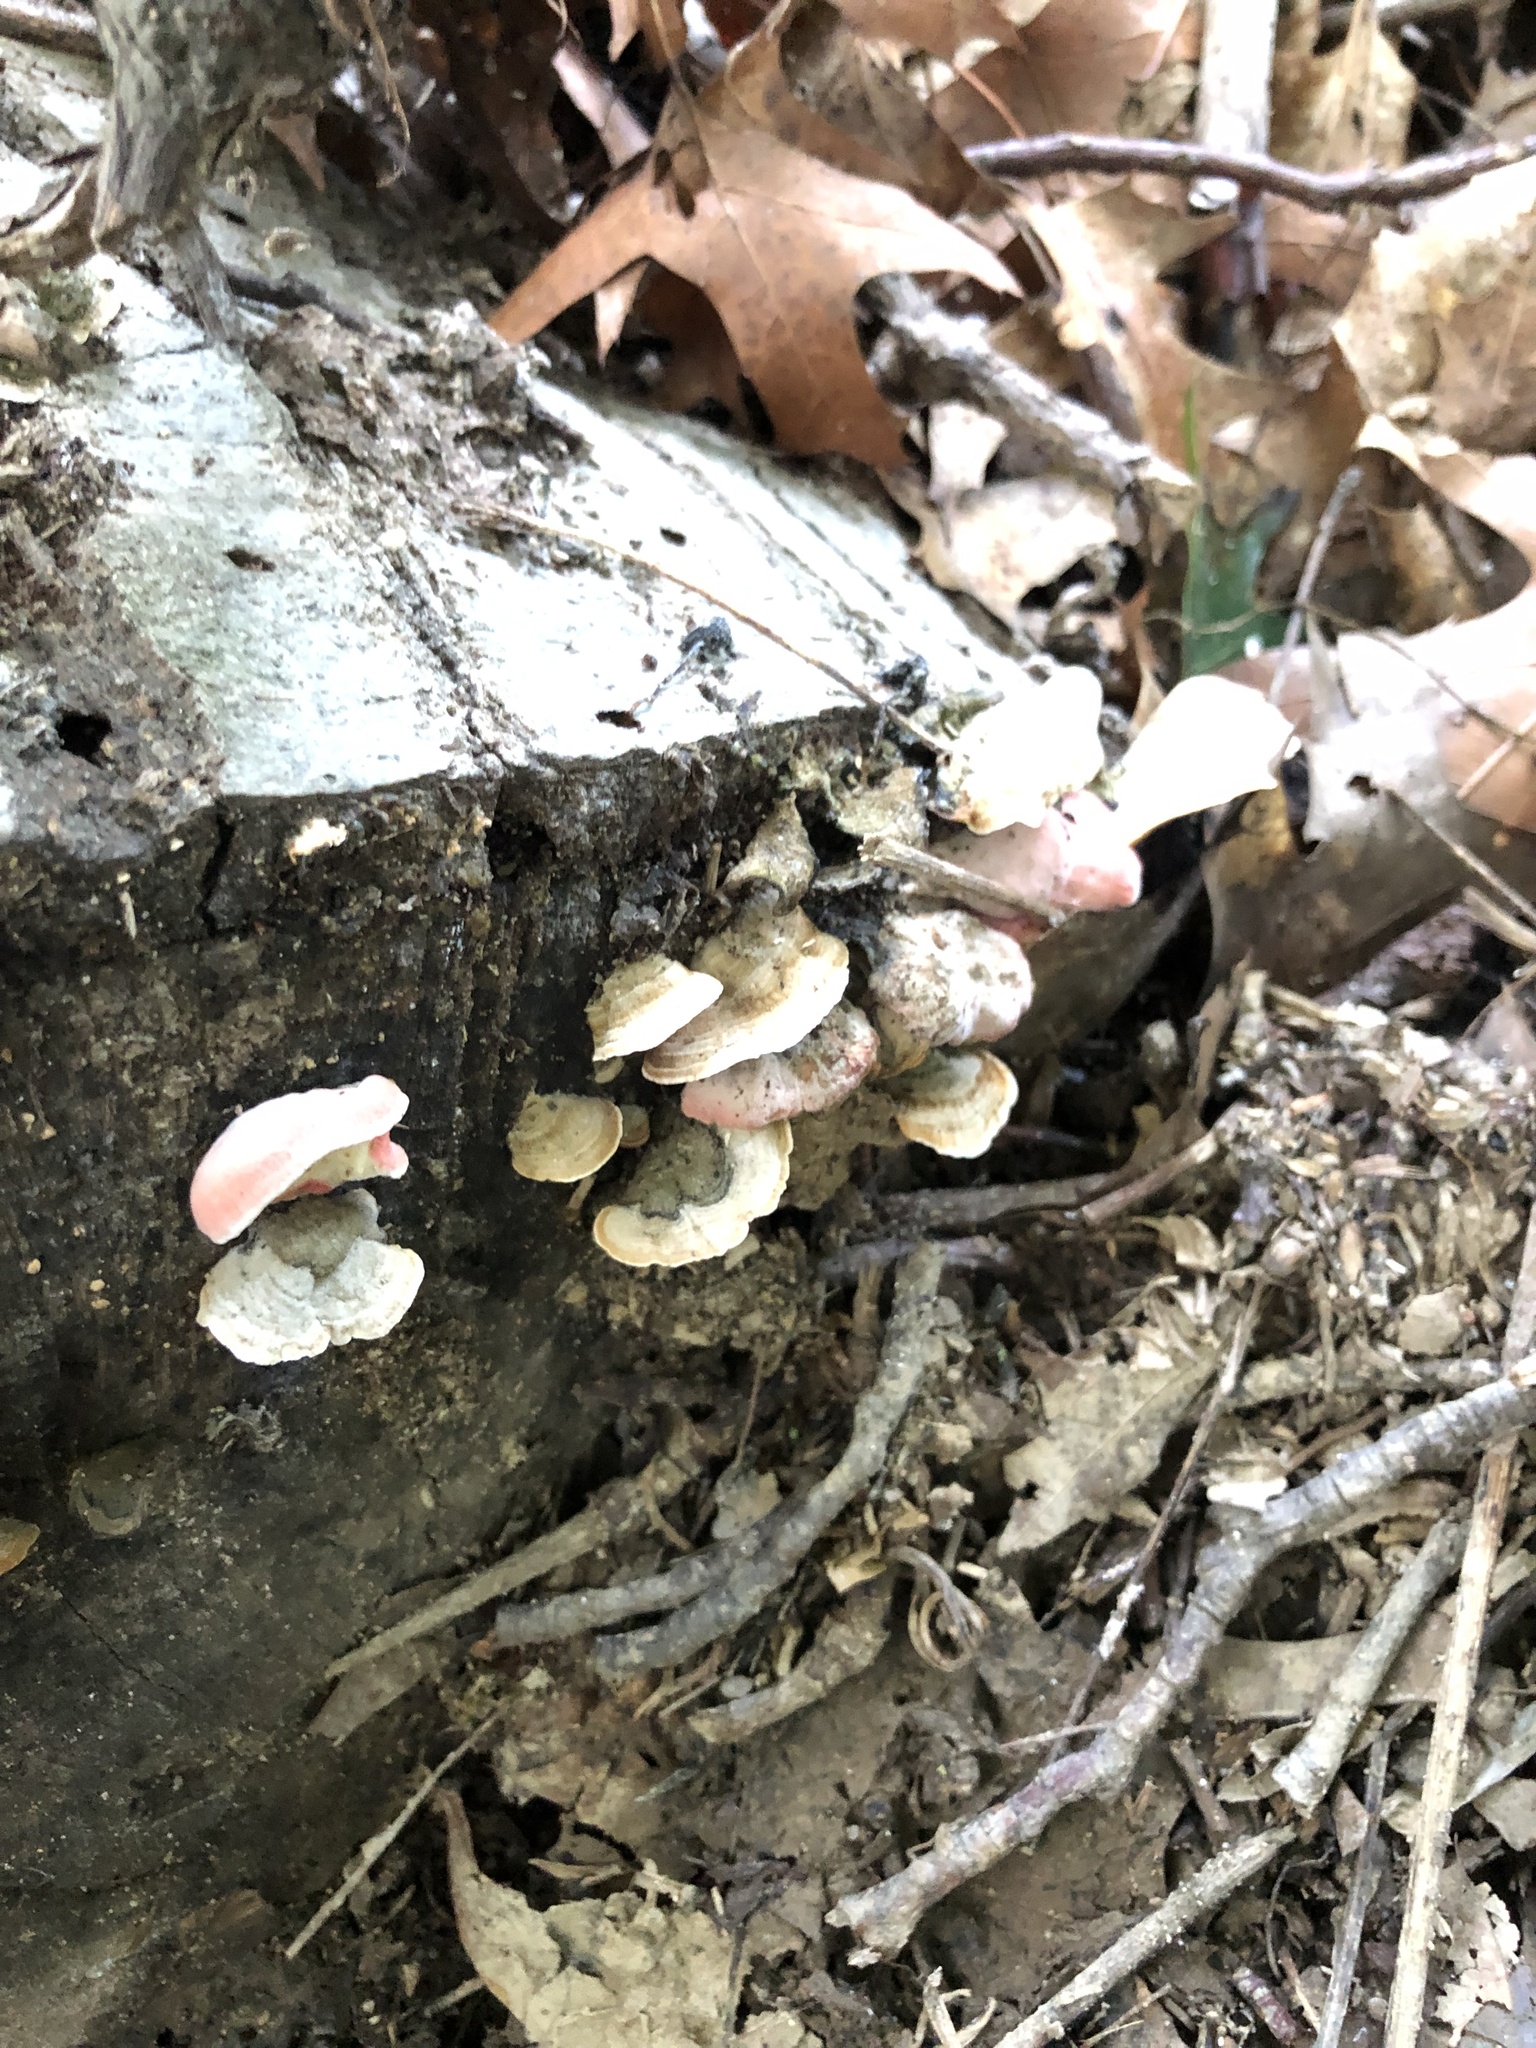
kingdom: Fungi
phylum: Basidiomycota
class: Agaricomycetes
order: Polyporales
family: Irpicaceae
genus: Byssomerulius
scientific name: Byssomerulius incarnatus
